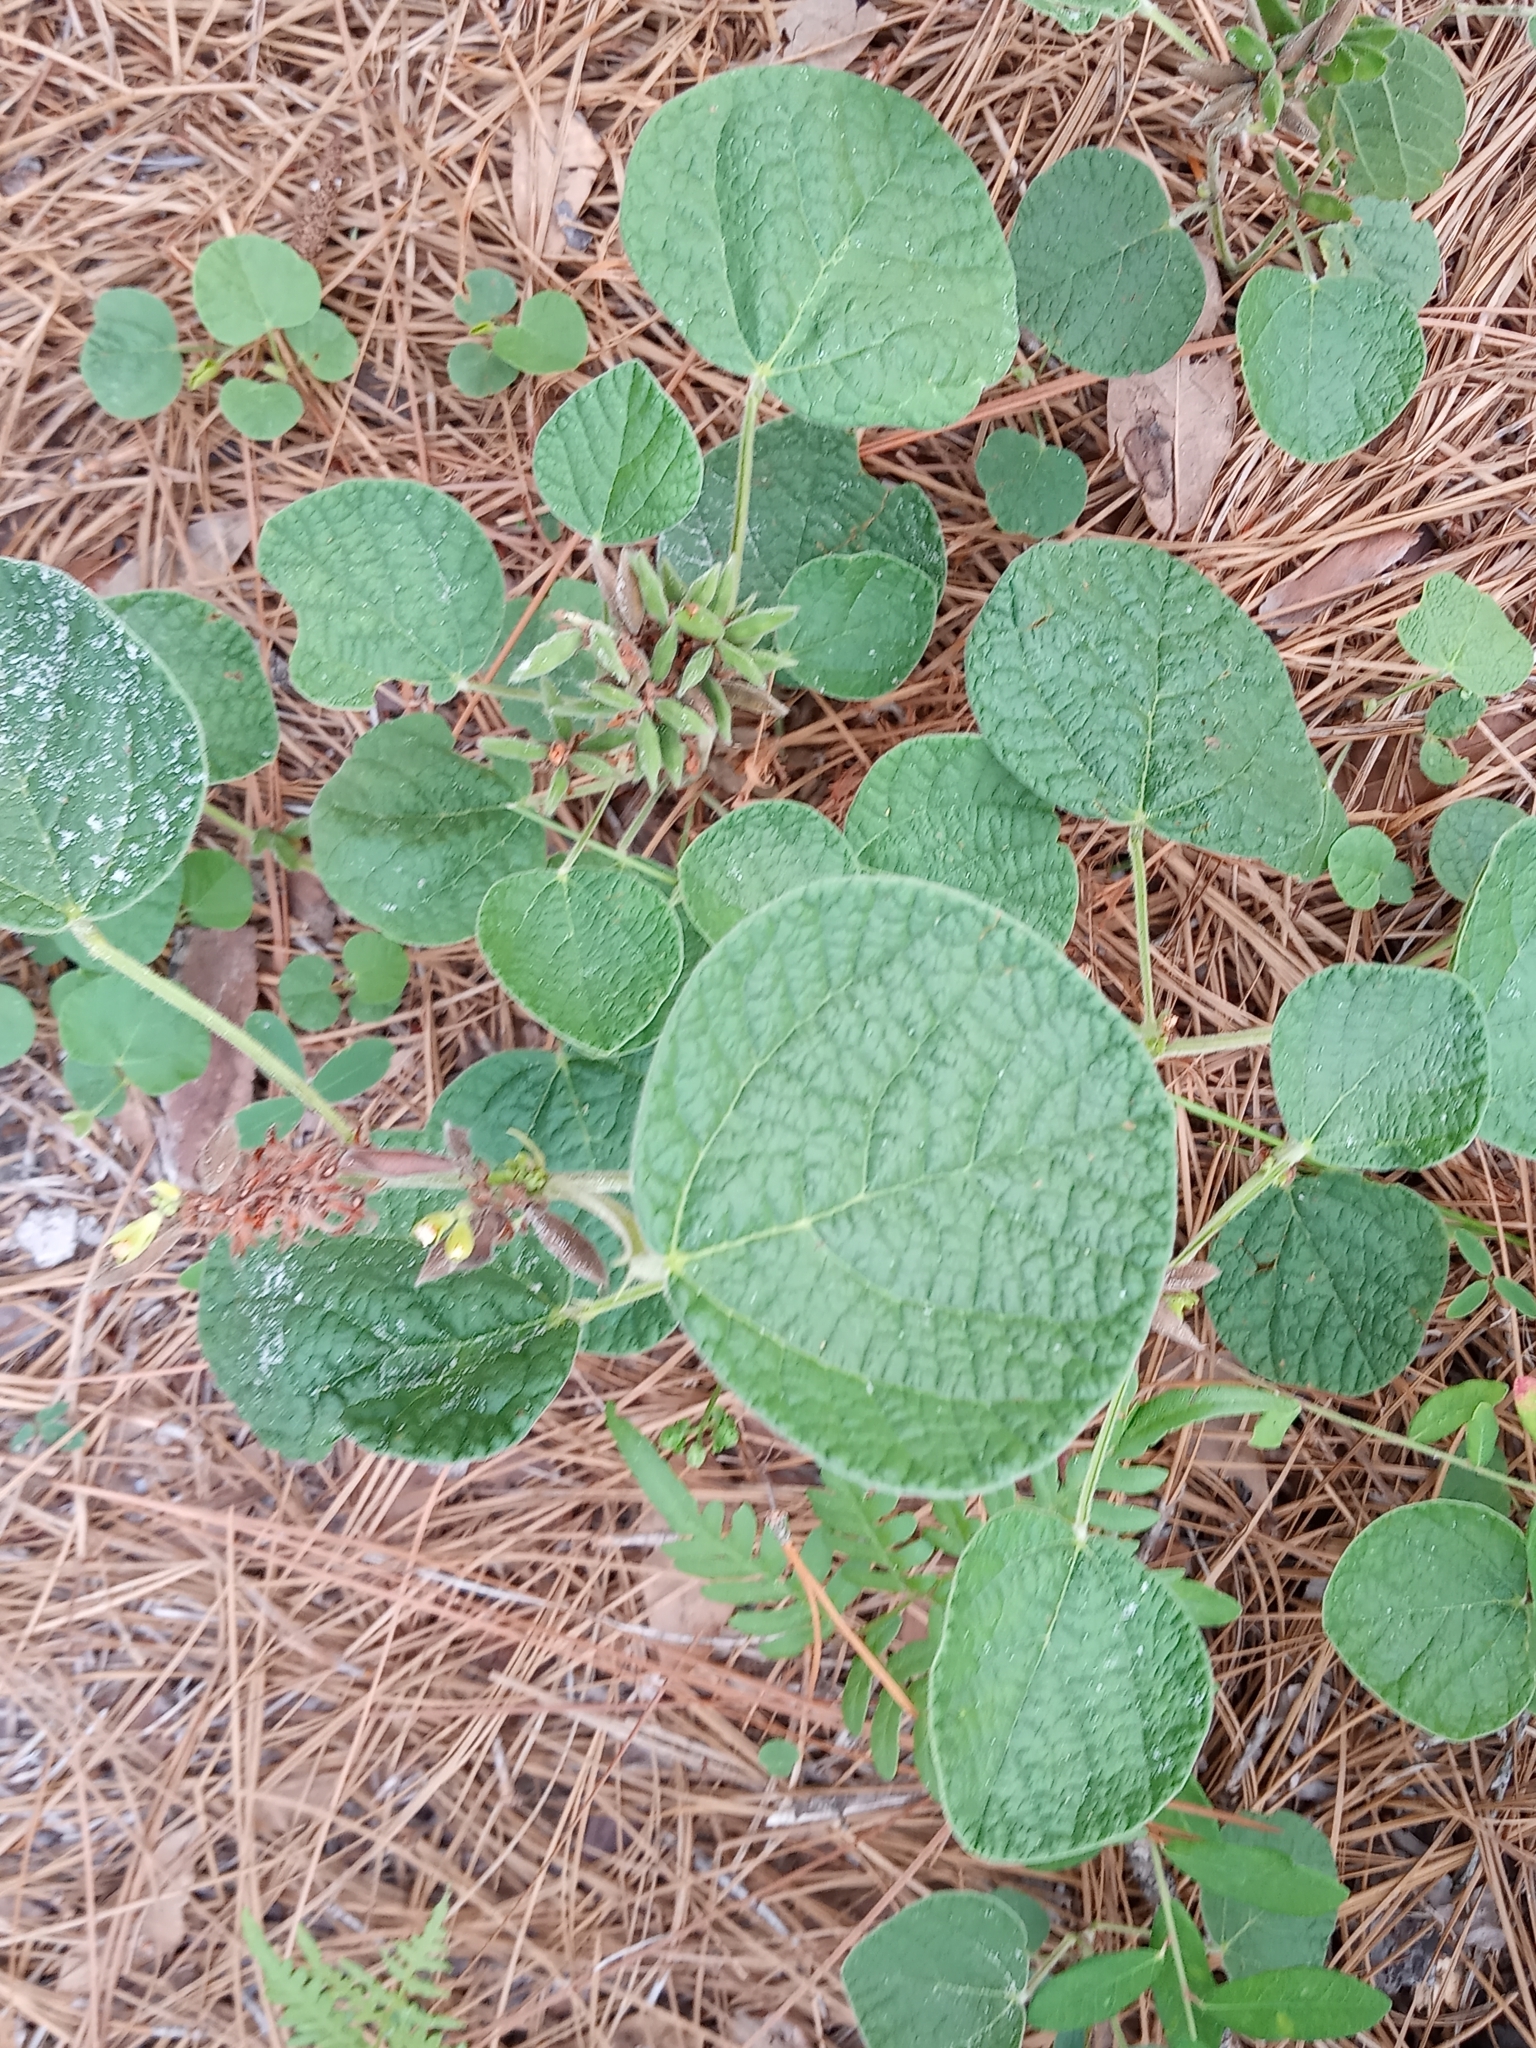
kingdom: Plantae
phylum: Tracheophyta
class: Magnoliopsida
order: Fabales
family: Fabaceae
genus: Rhynchosia
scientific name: Rhynchosia reniformis
